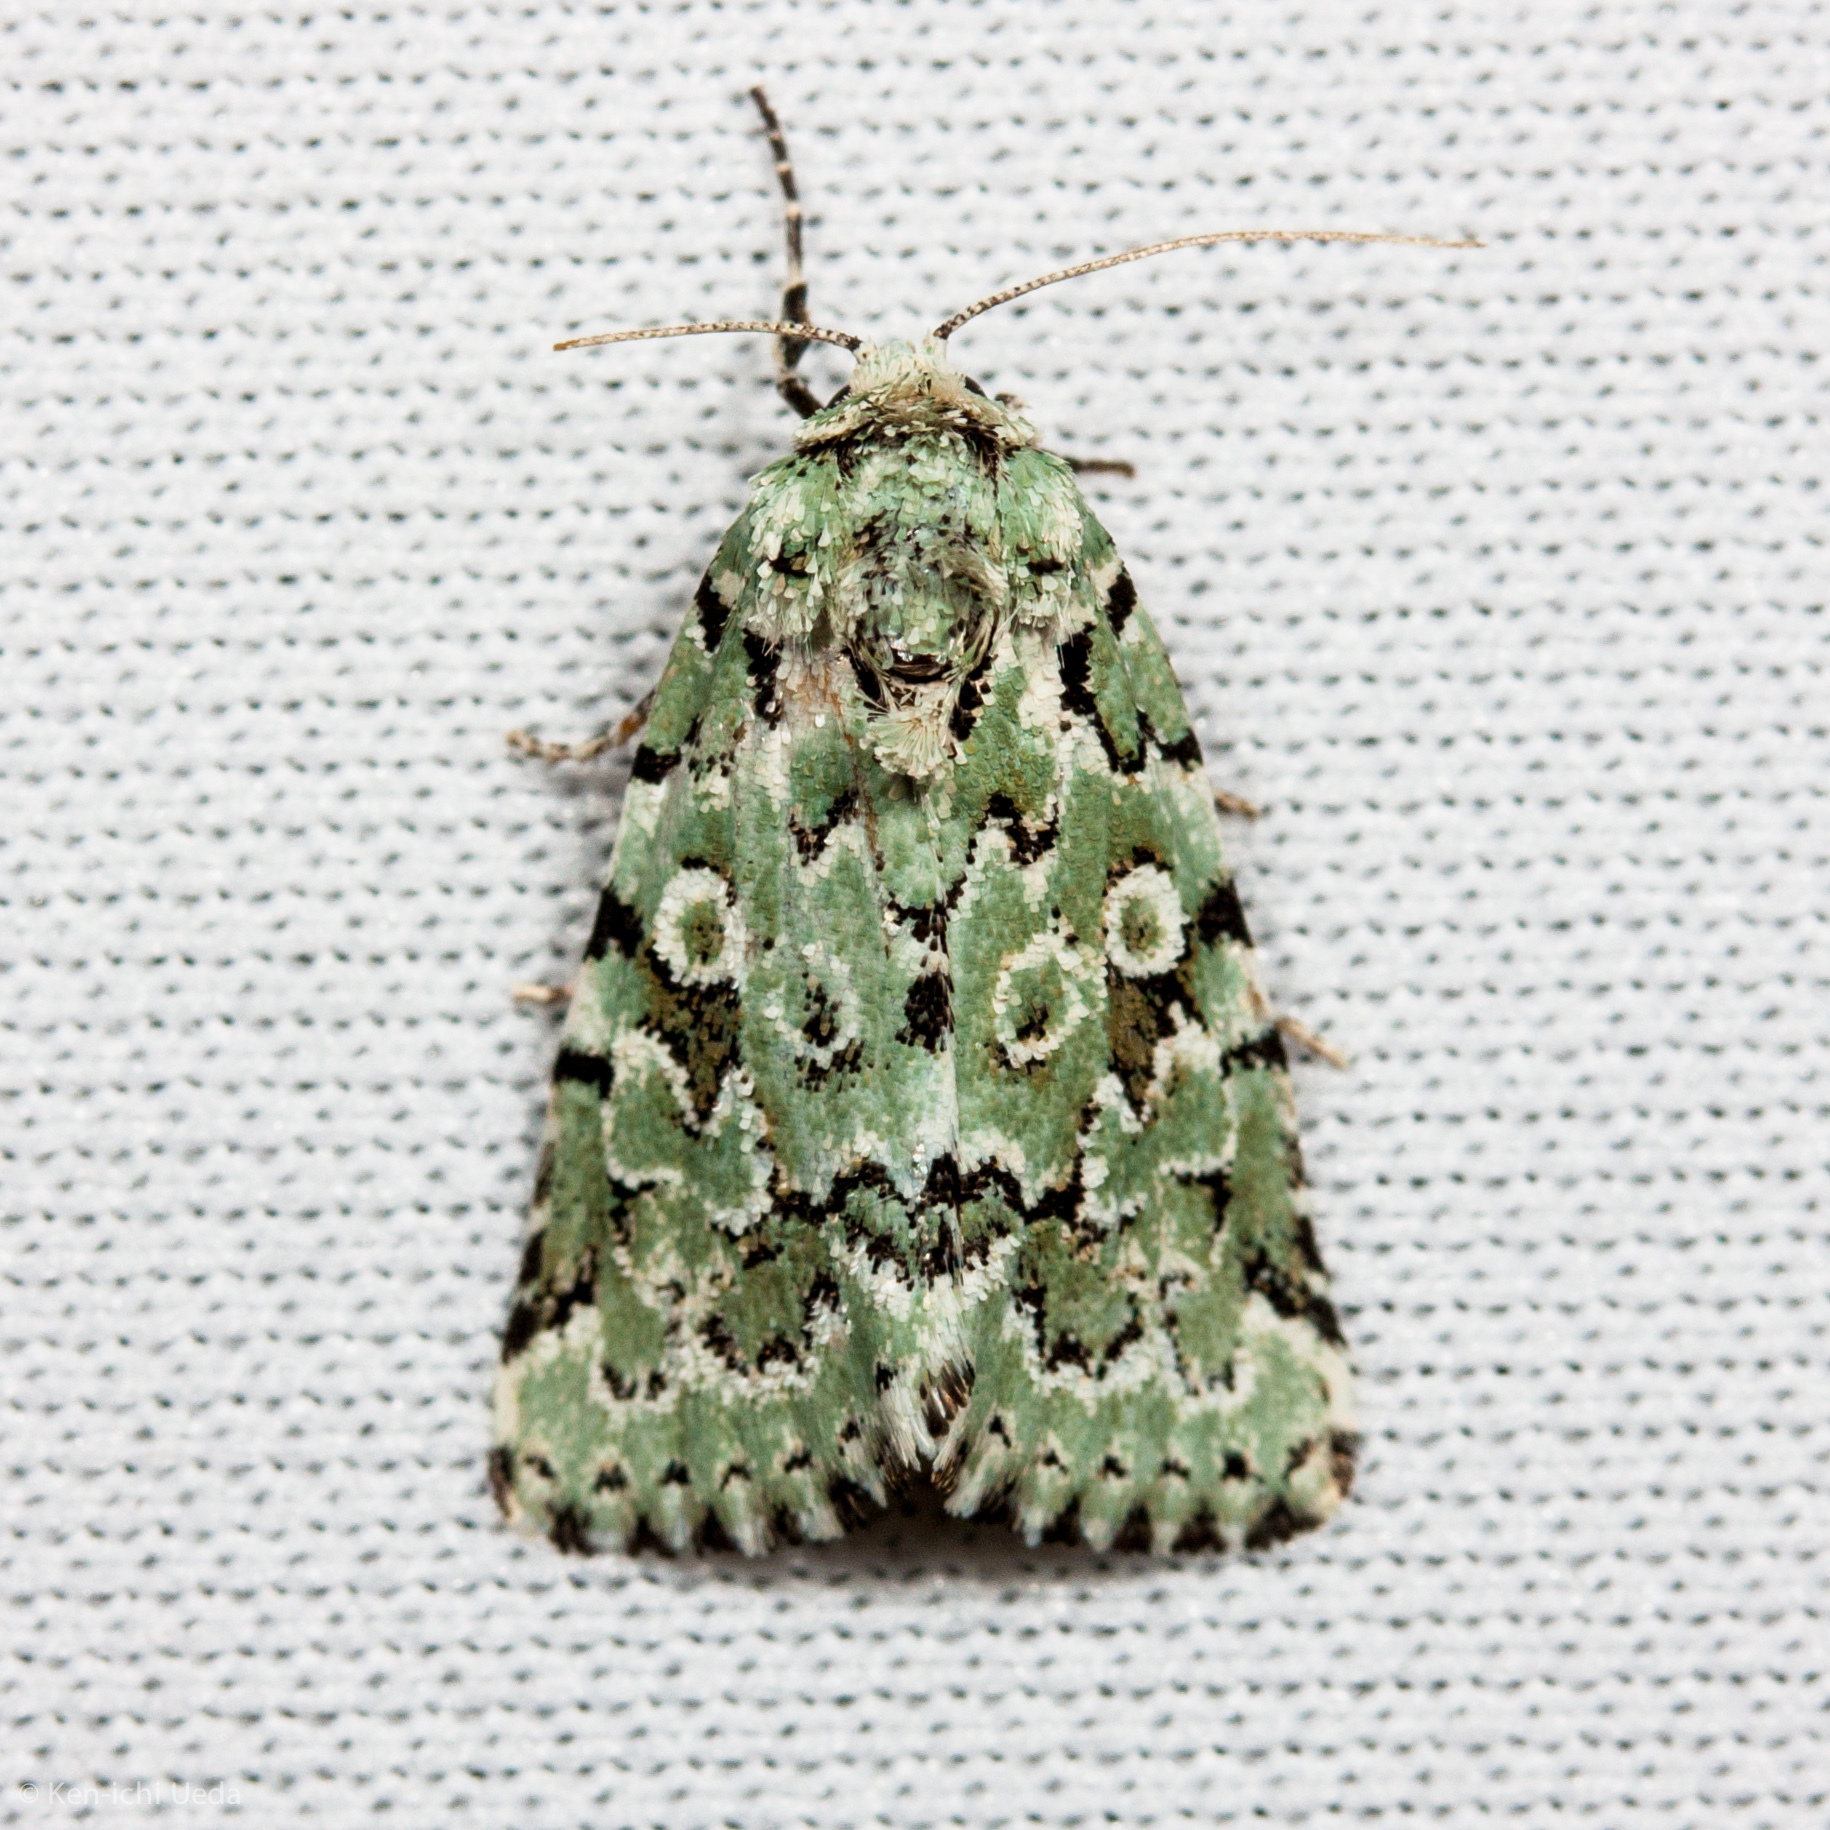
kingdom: Animalia
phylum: Arthropoda
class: Insecta
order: Lepidoptera
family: Noctuidae
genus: Bryolymnia
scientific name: Bryolymnia viridata
